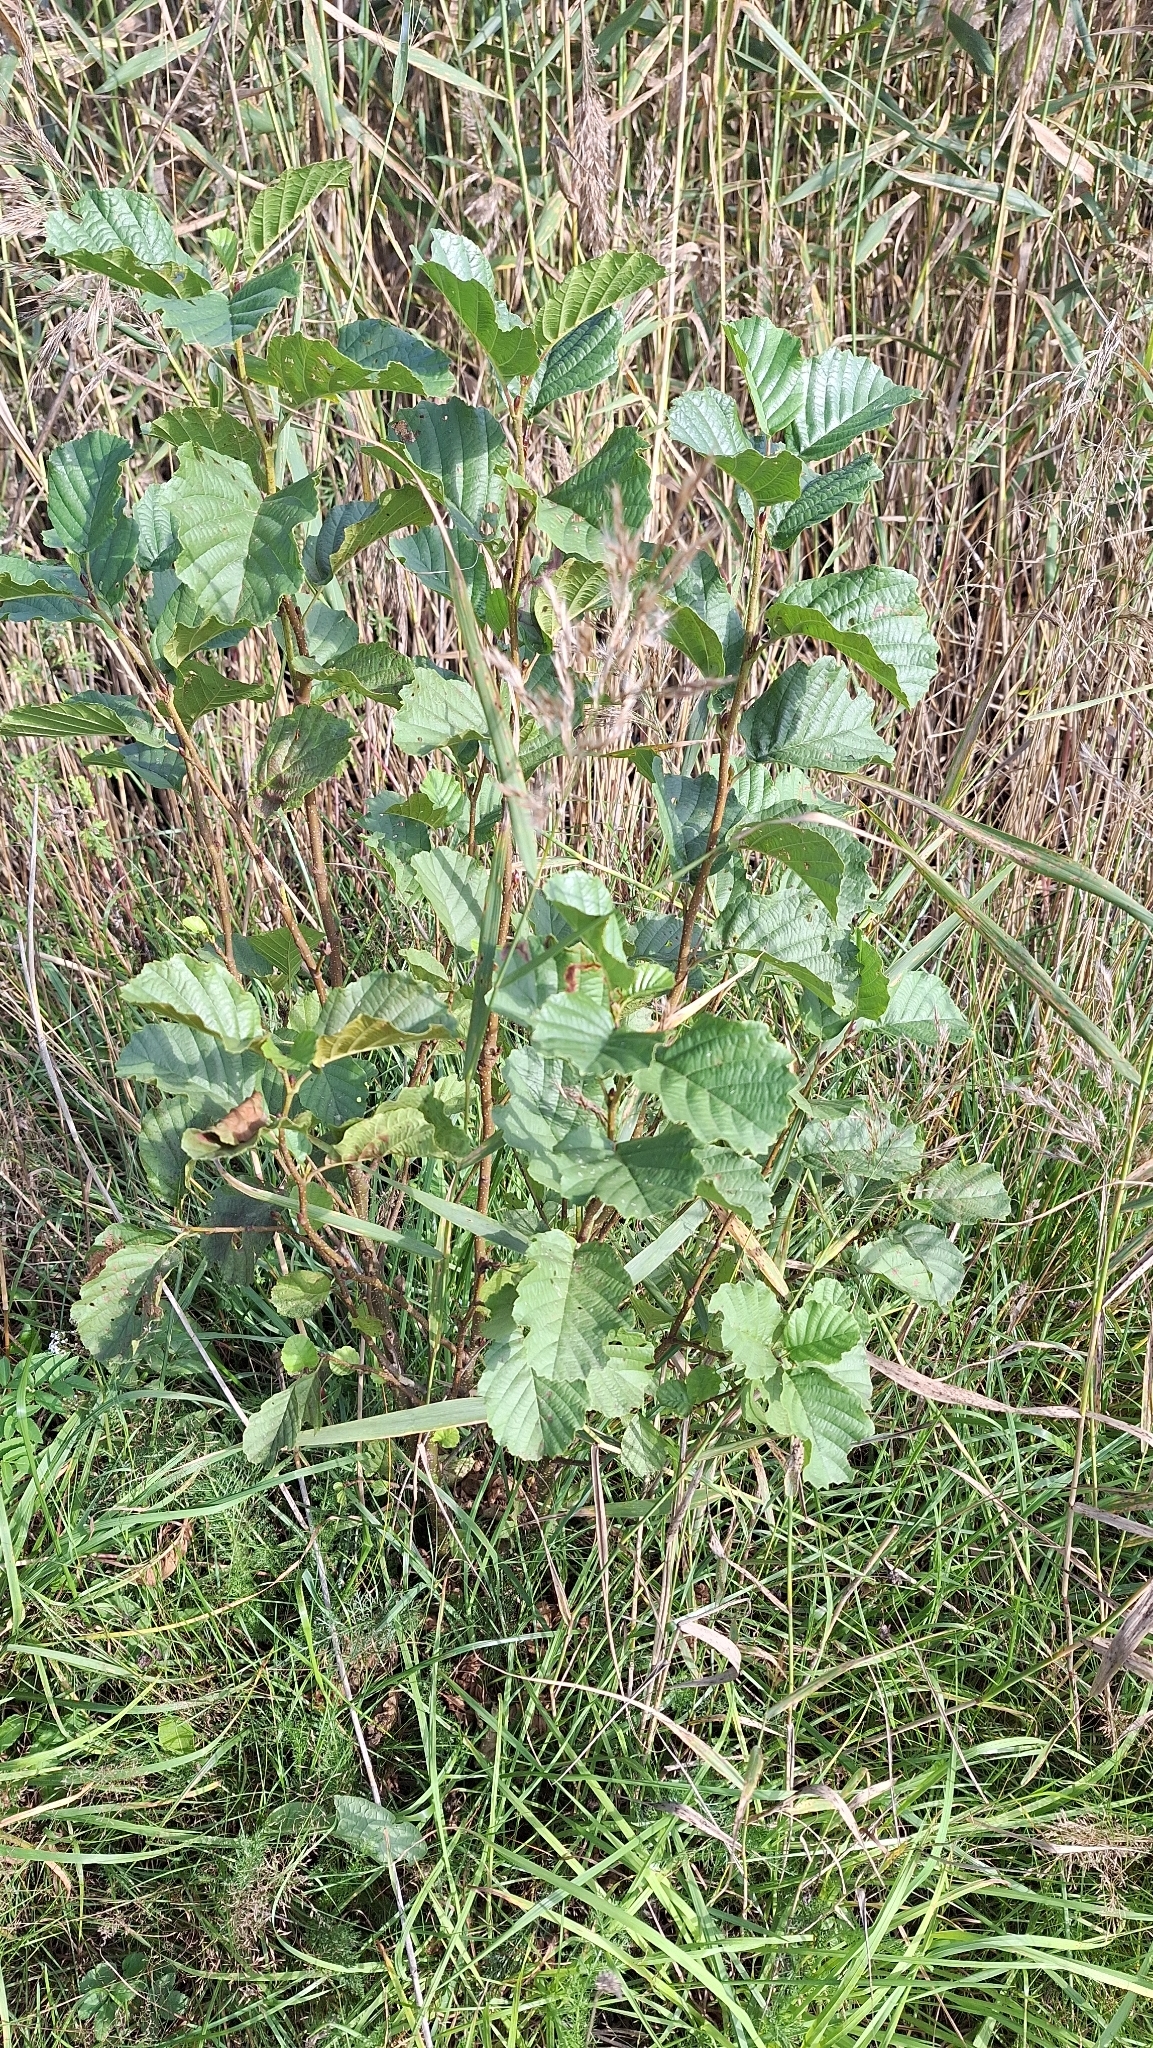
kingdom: Plantae
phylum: Tracheophyta
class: Magnoliopsida
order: Fagales
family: Betulaceae
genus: Alnus
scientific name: Alnus glutinosa
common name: Black alder
